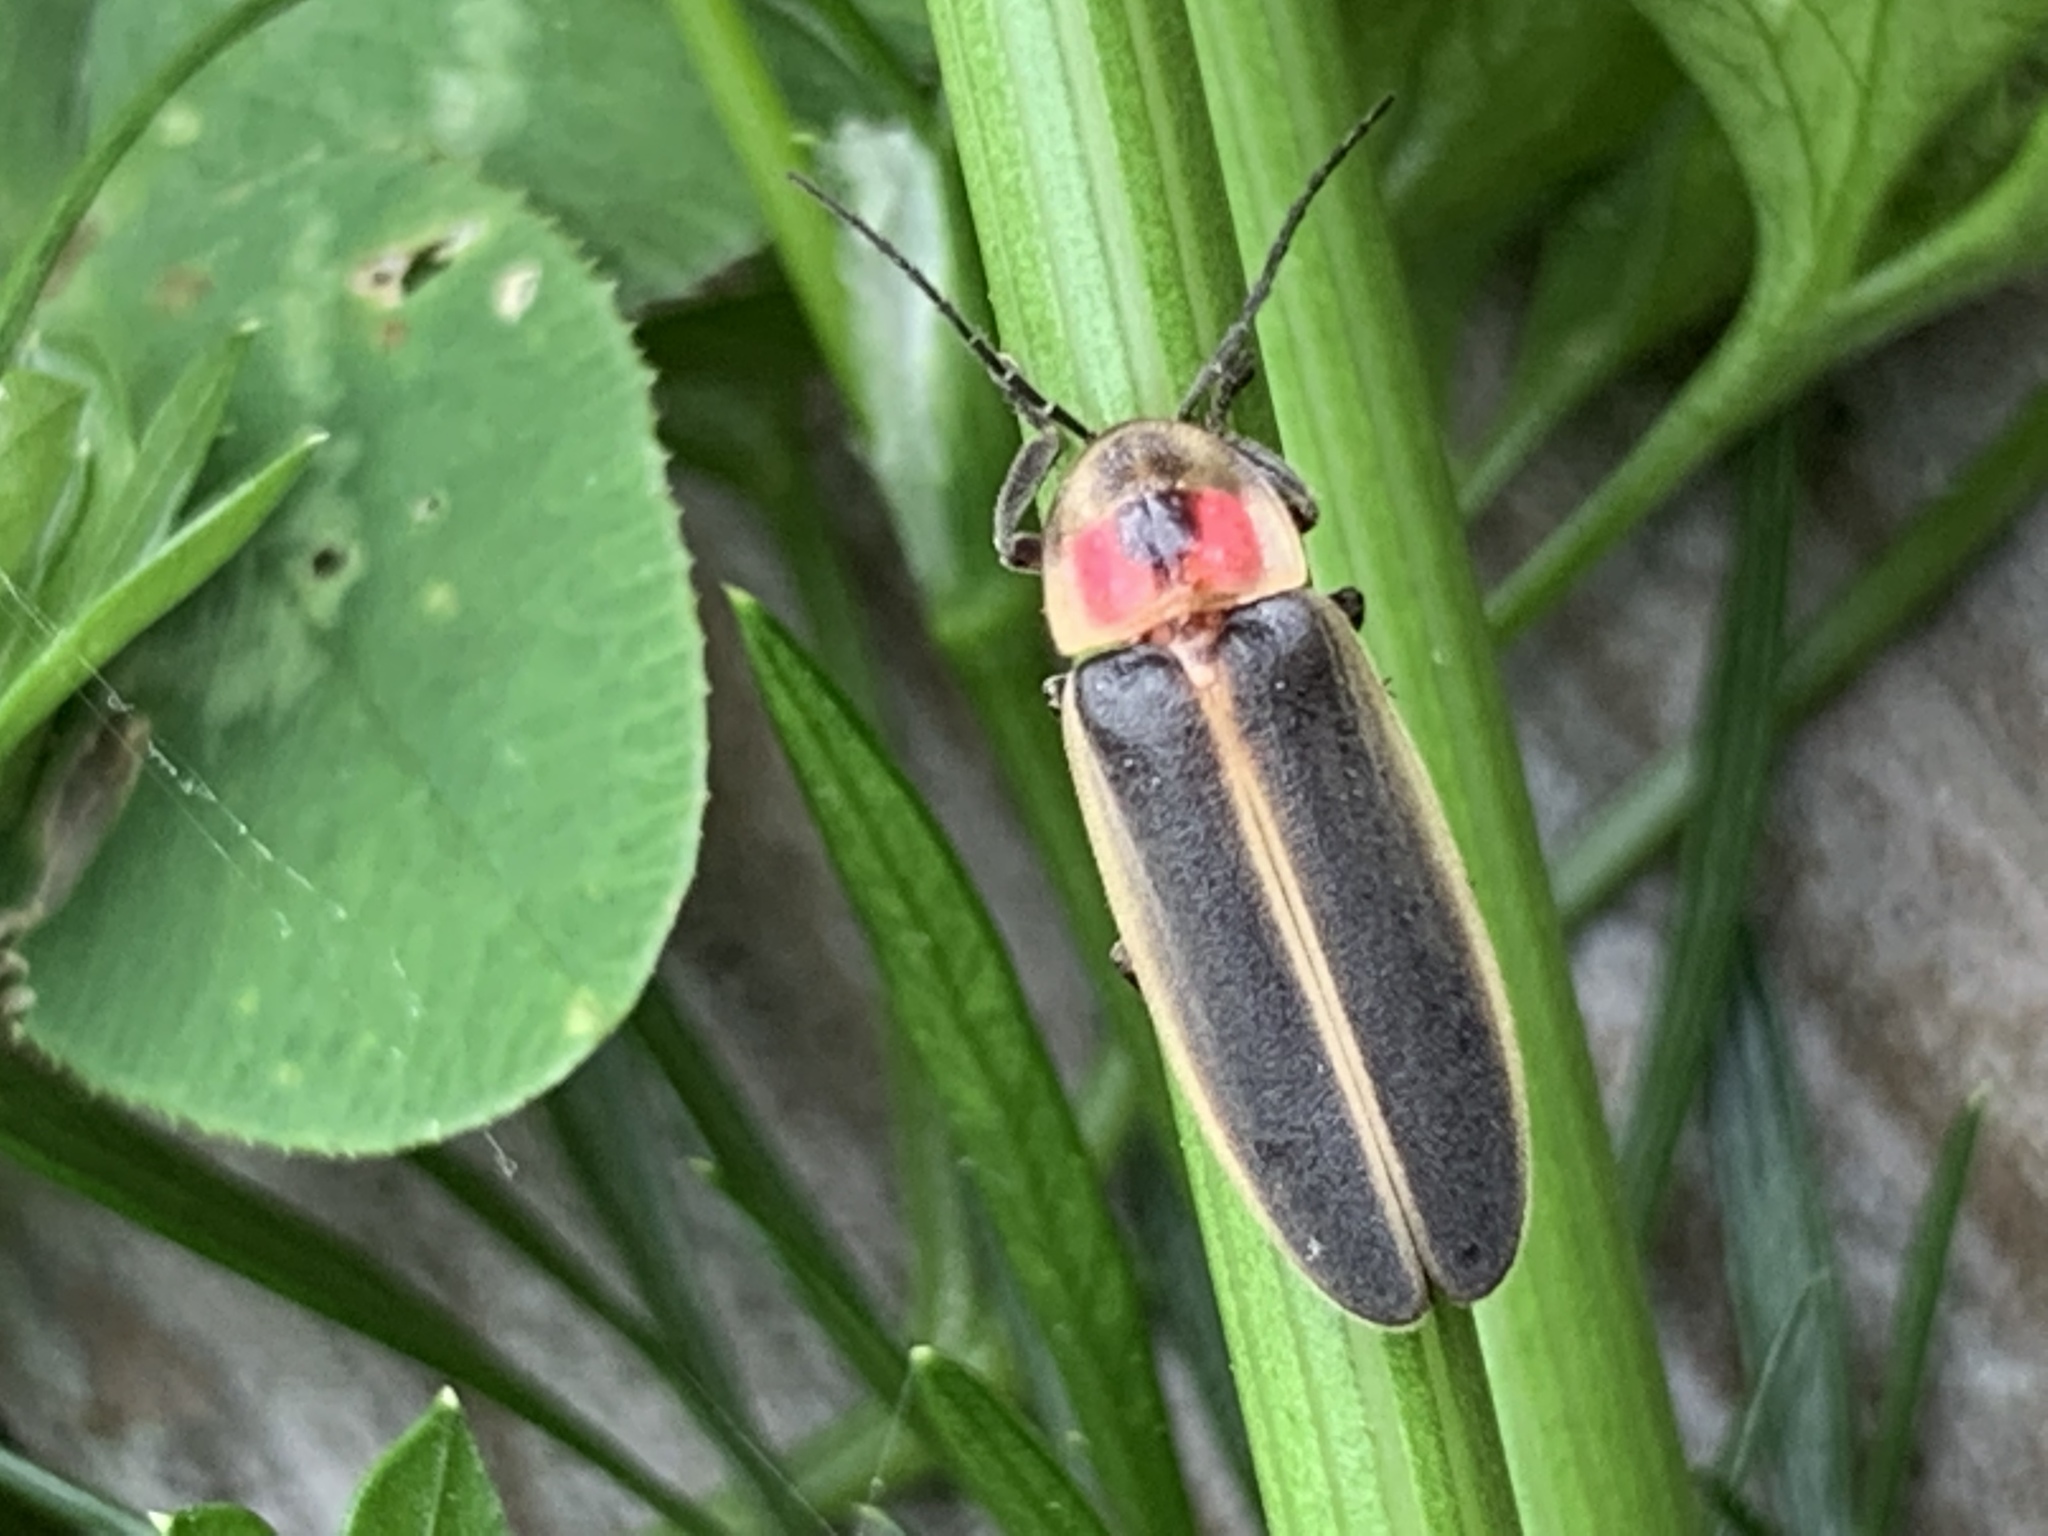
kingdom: Animalia
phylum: Arthropoda
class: Insecta
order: Coleoptera
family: Lampyridae
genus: Photinus
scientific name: Photinus pyralis
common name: Big dipper firefly
